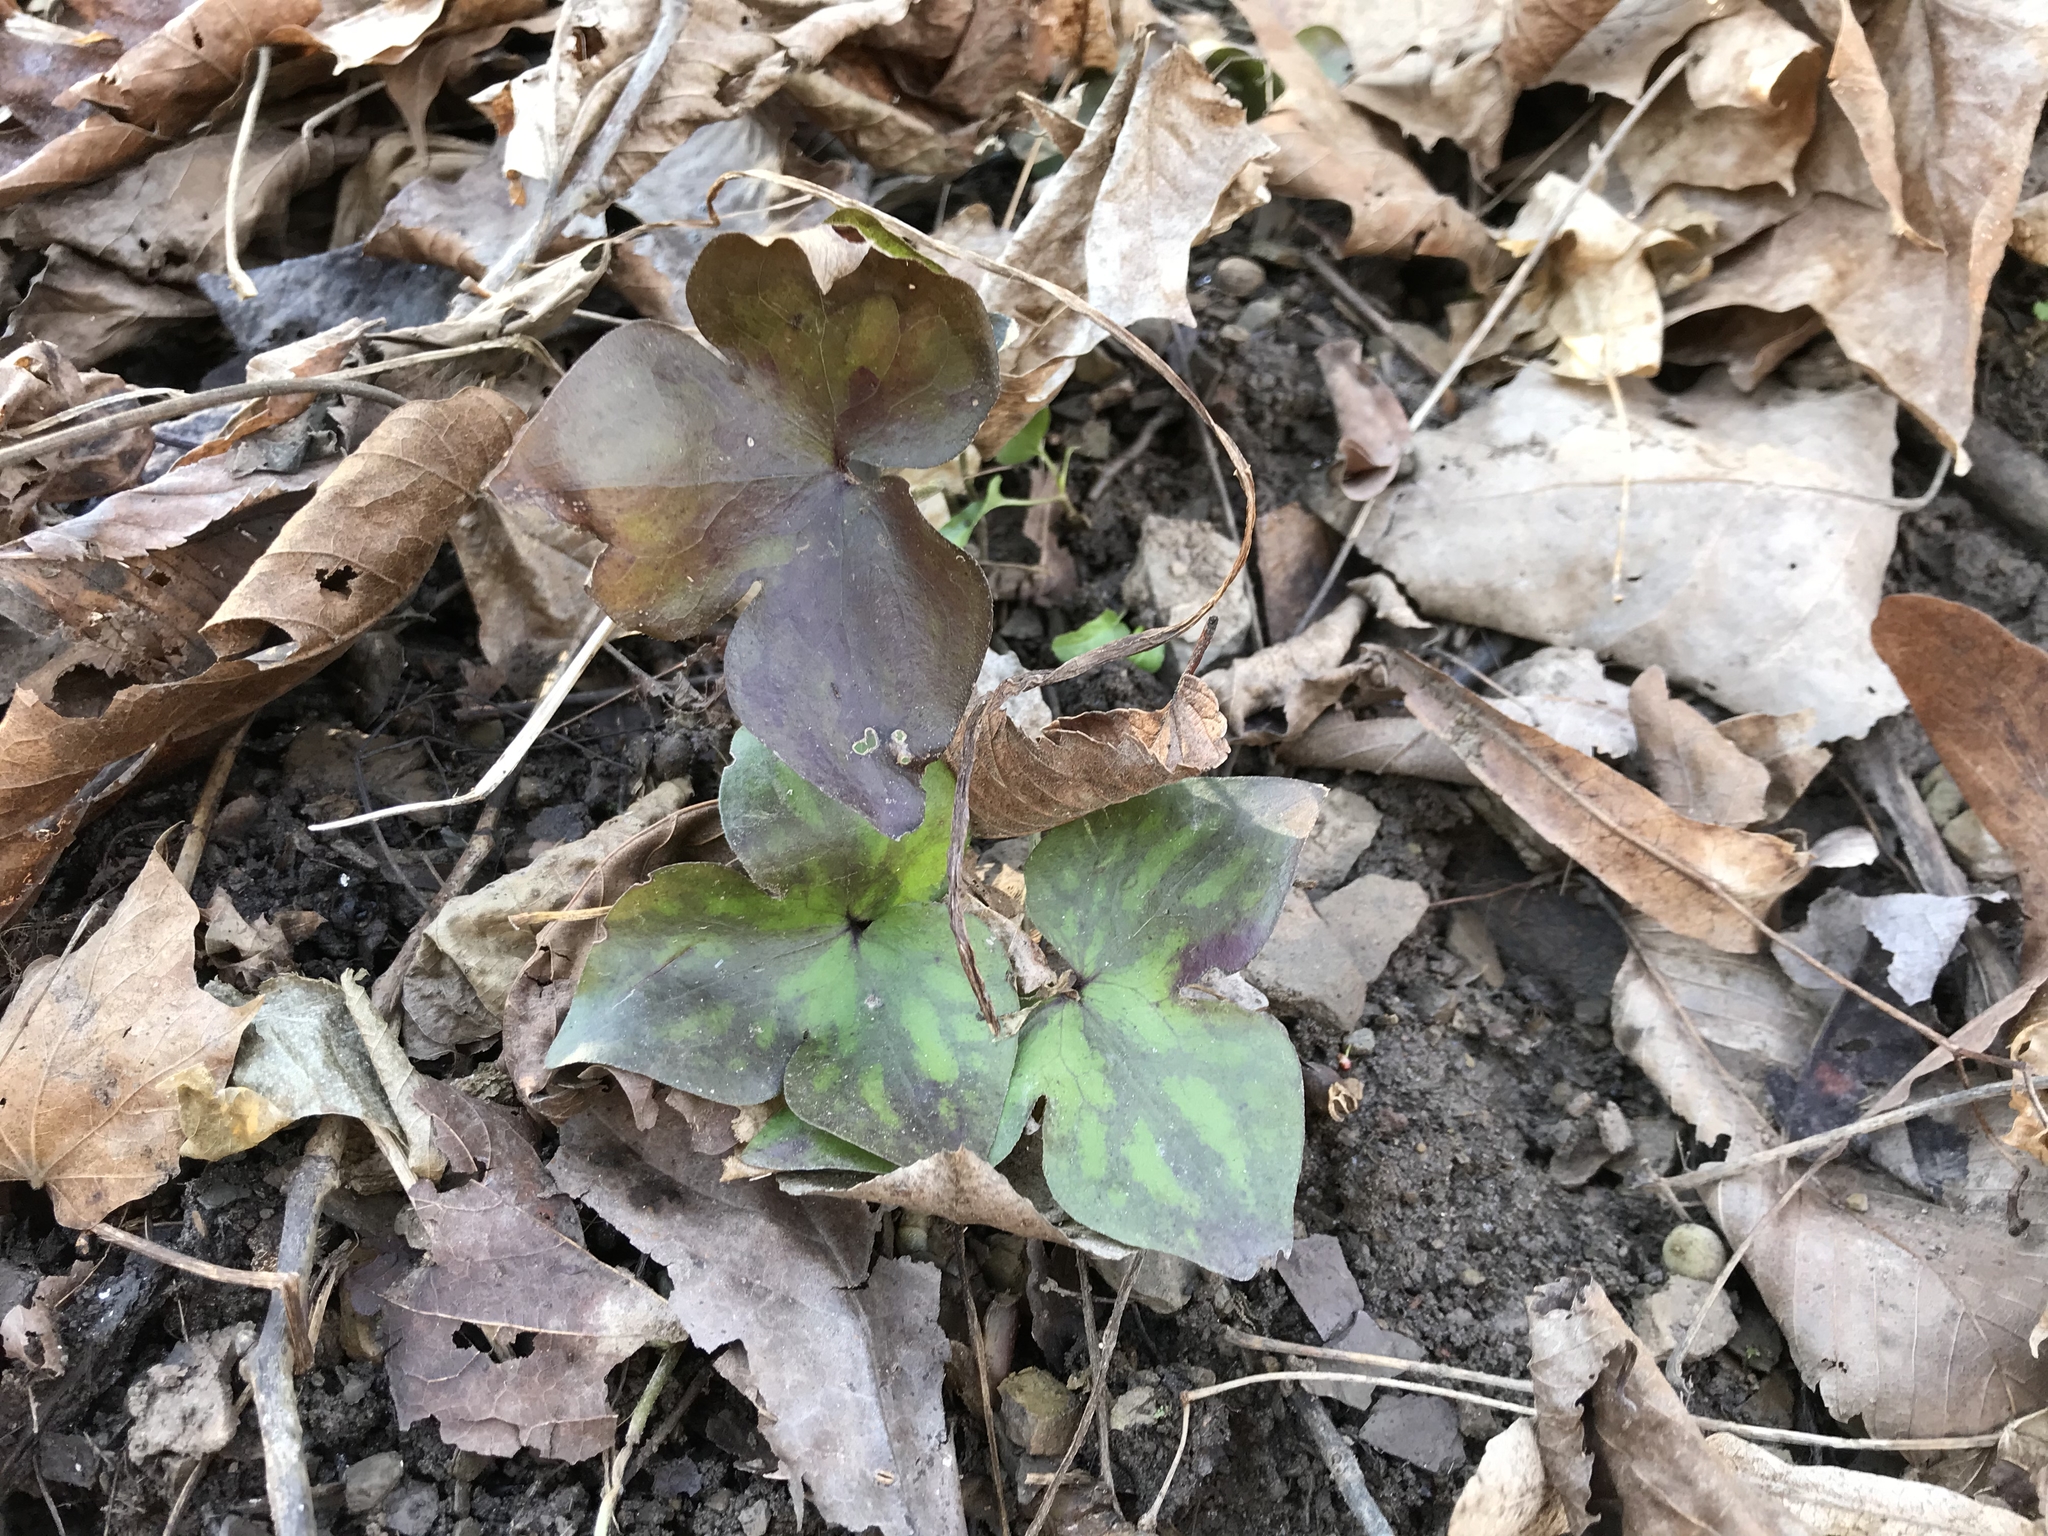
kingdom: Plantae
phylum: Tracheophyta
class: Magnoliopsida
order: Ranunculales
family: Ranunculaceae
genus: Hepatica
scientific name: Hepatica acutiloba
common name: Sharp-lobed hepatica
